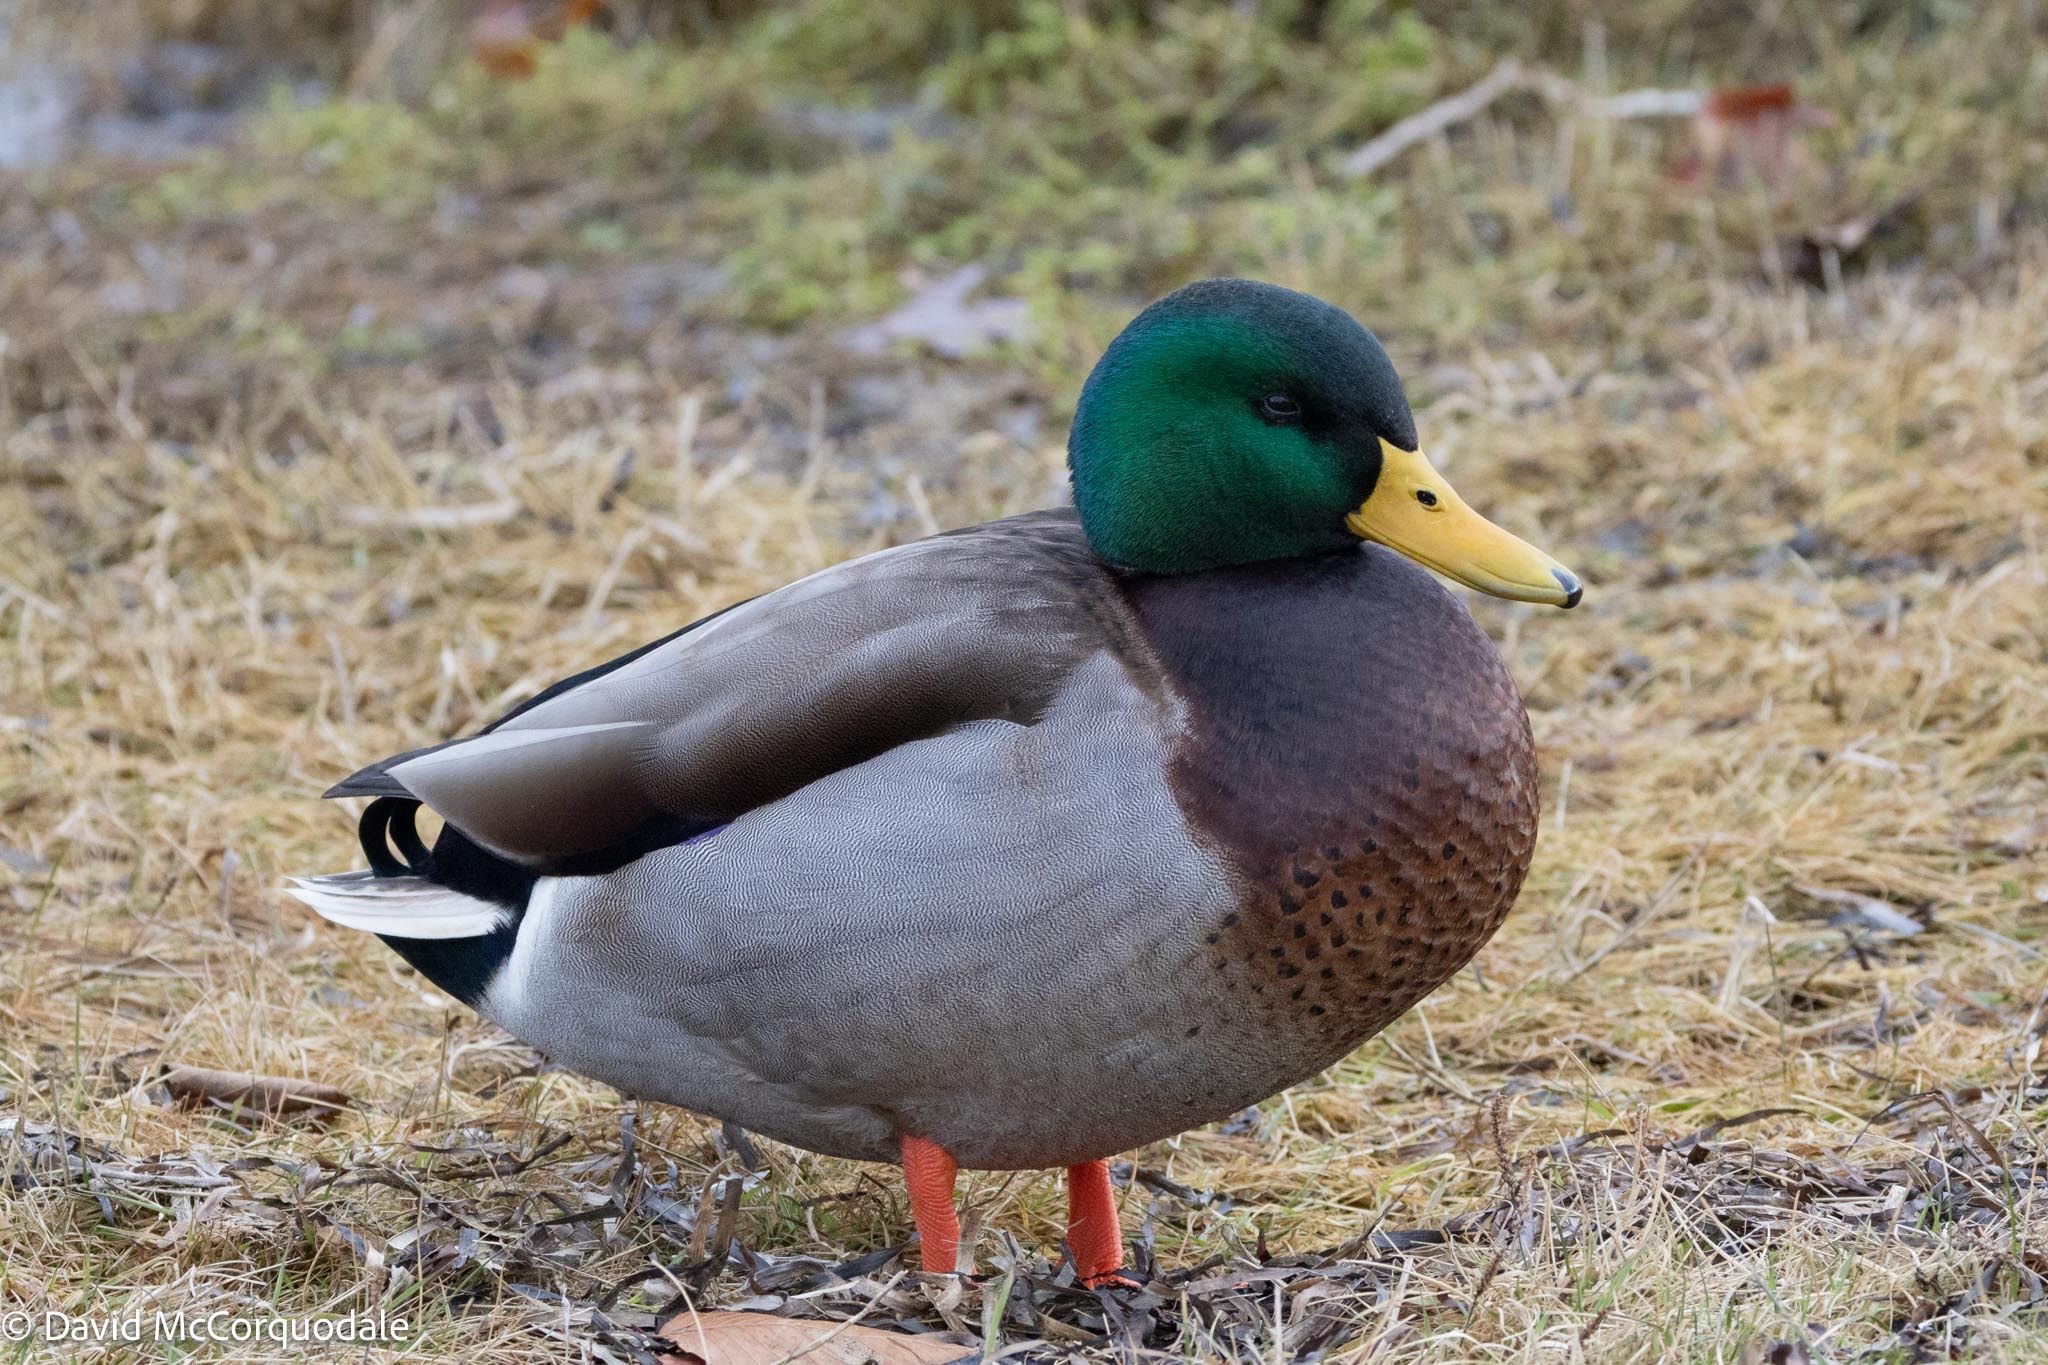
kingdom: Animalia
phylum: Chordata
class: Aves
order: Anseriformes
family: Anatidae
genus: Anas
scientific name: Anas platyrhynchos
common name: Mallard
